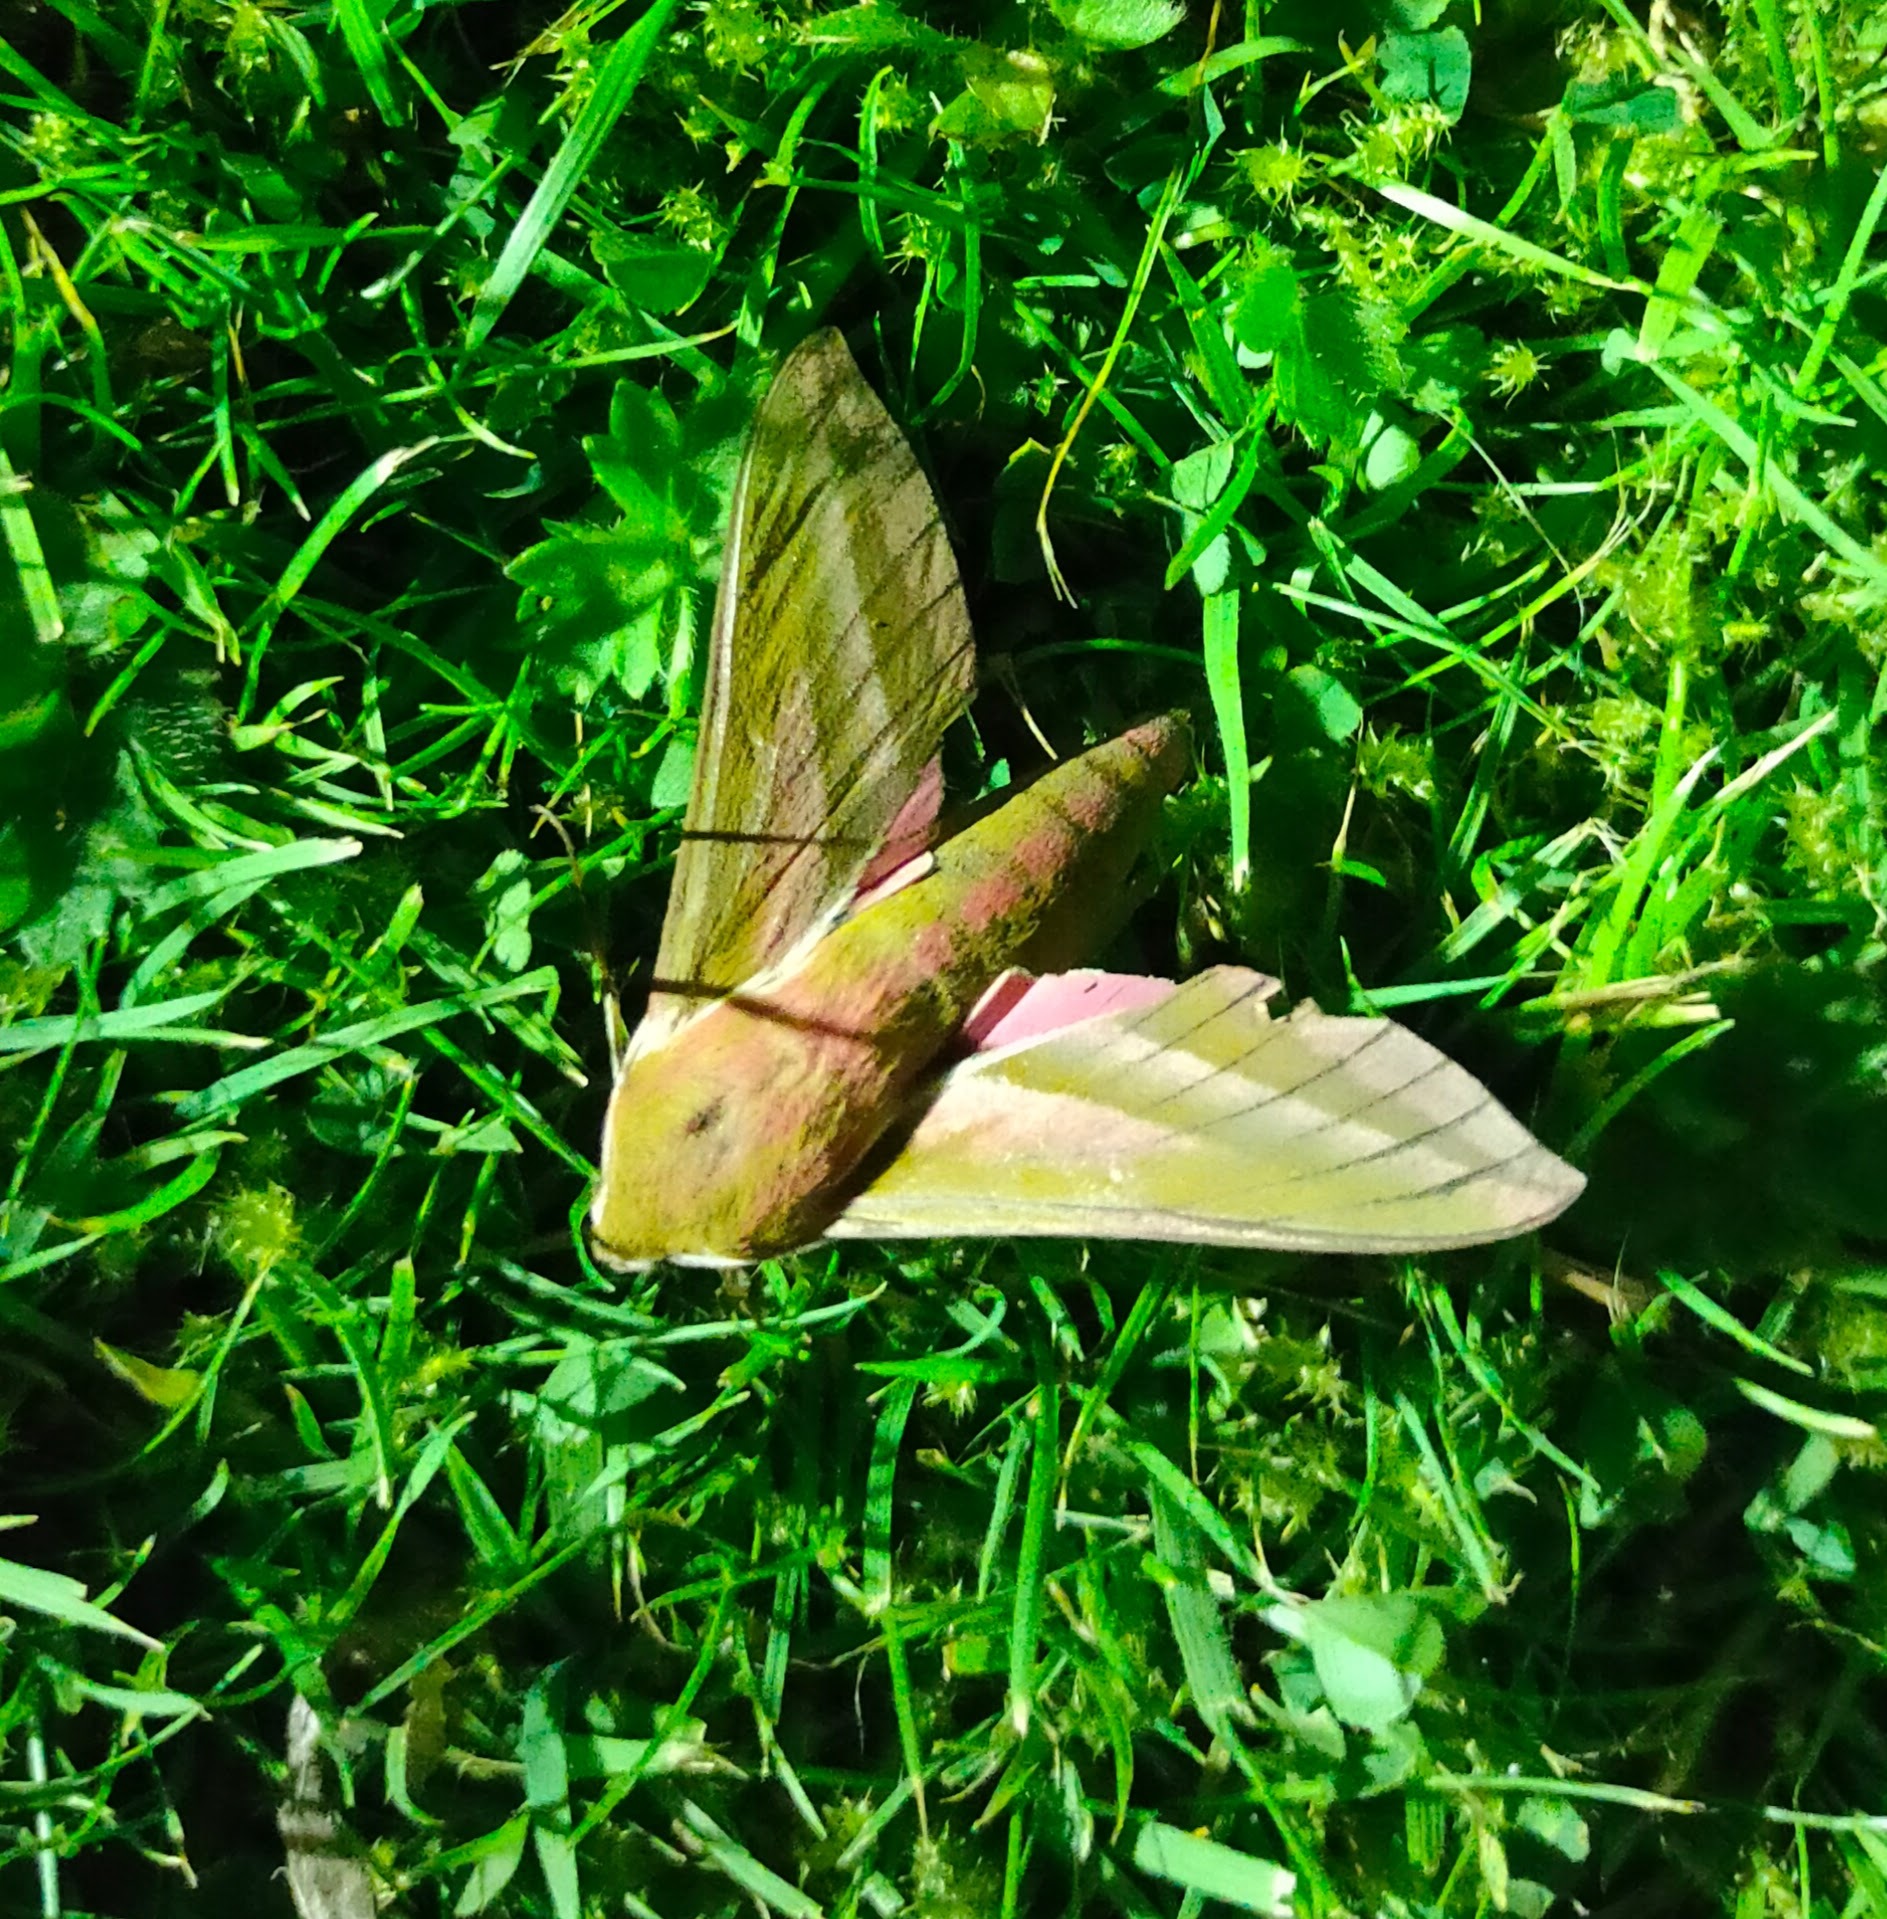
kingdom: Animalia
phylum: Arthropoda
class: Insecta
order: Lepidoptera
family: Sphingidae
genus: Deilephila
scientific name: Deilephila elpenor
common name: Elephant hawk-moth
